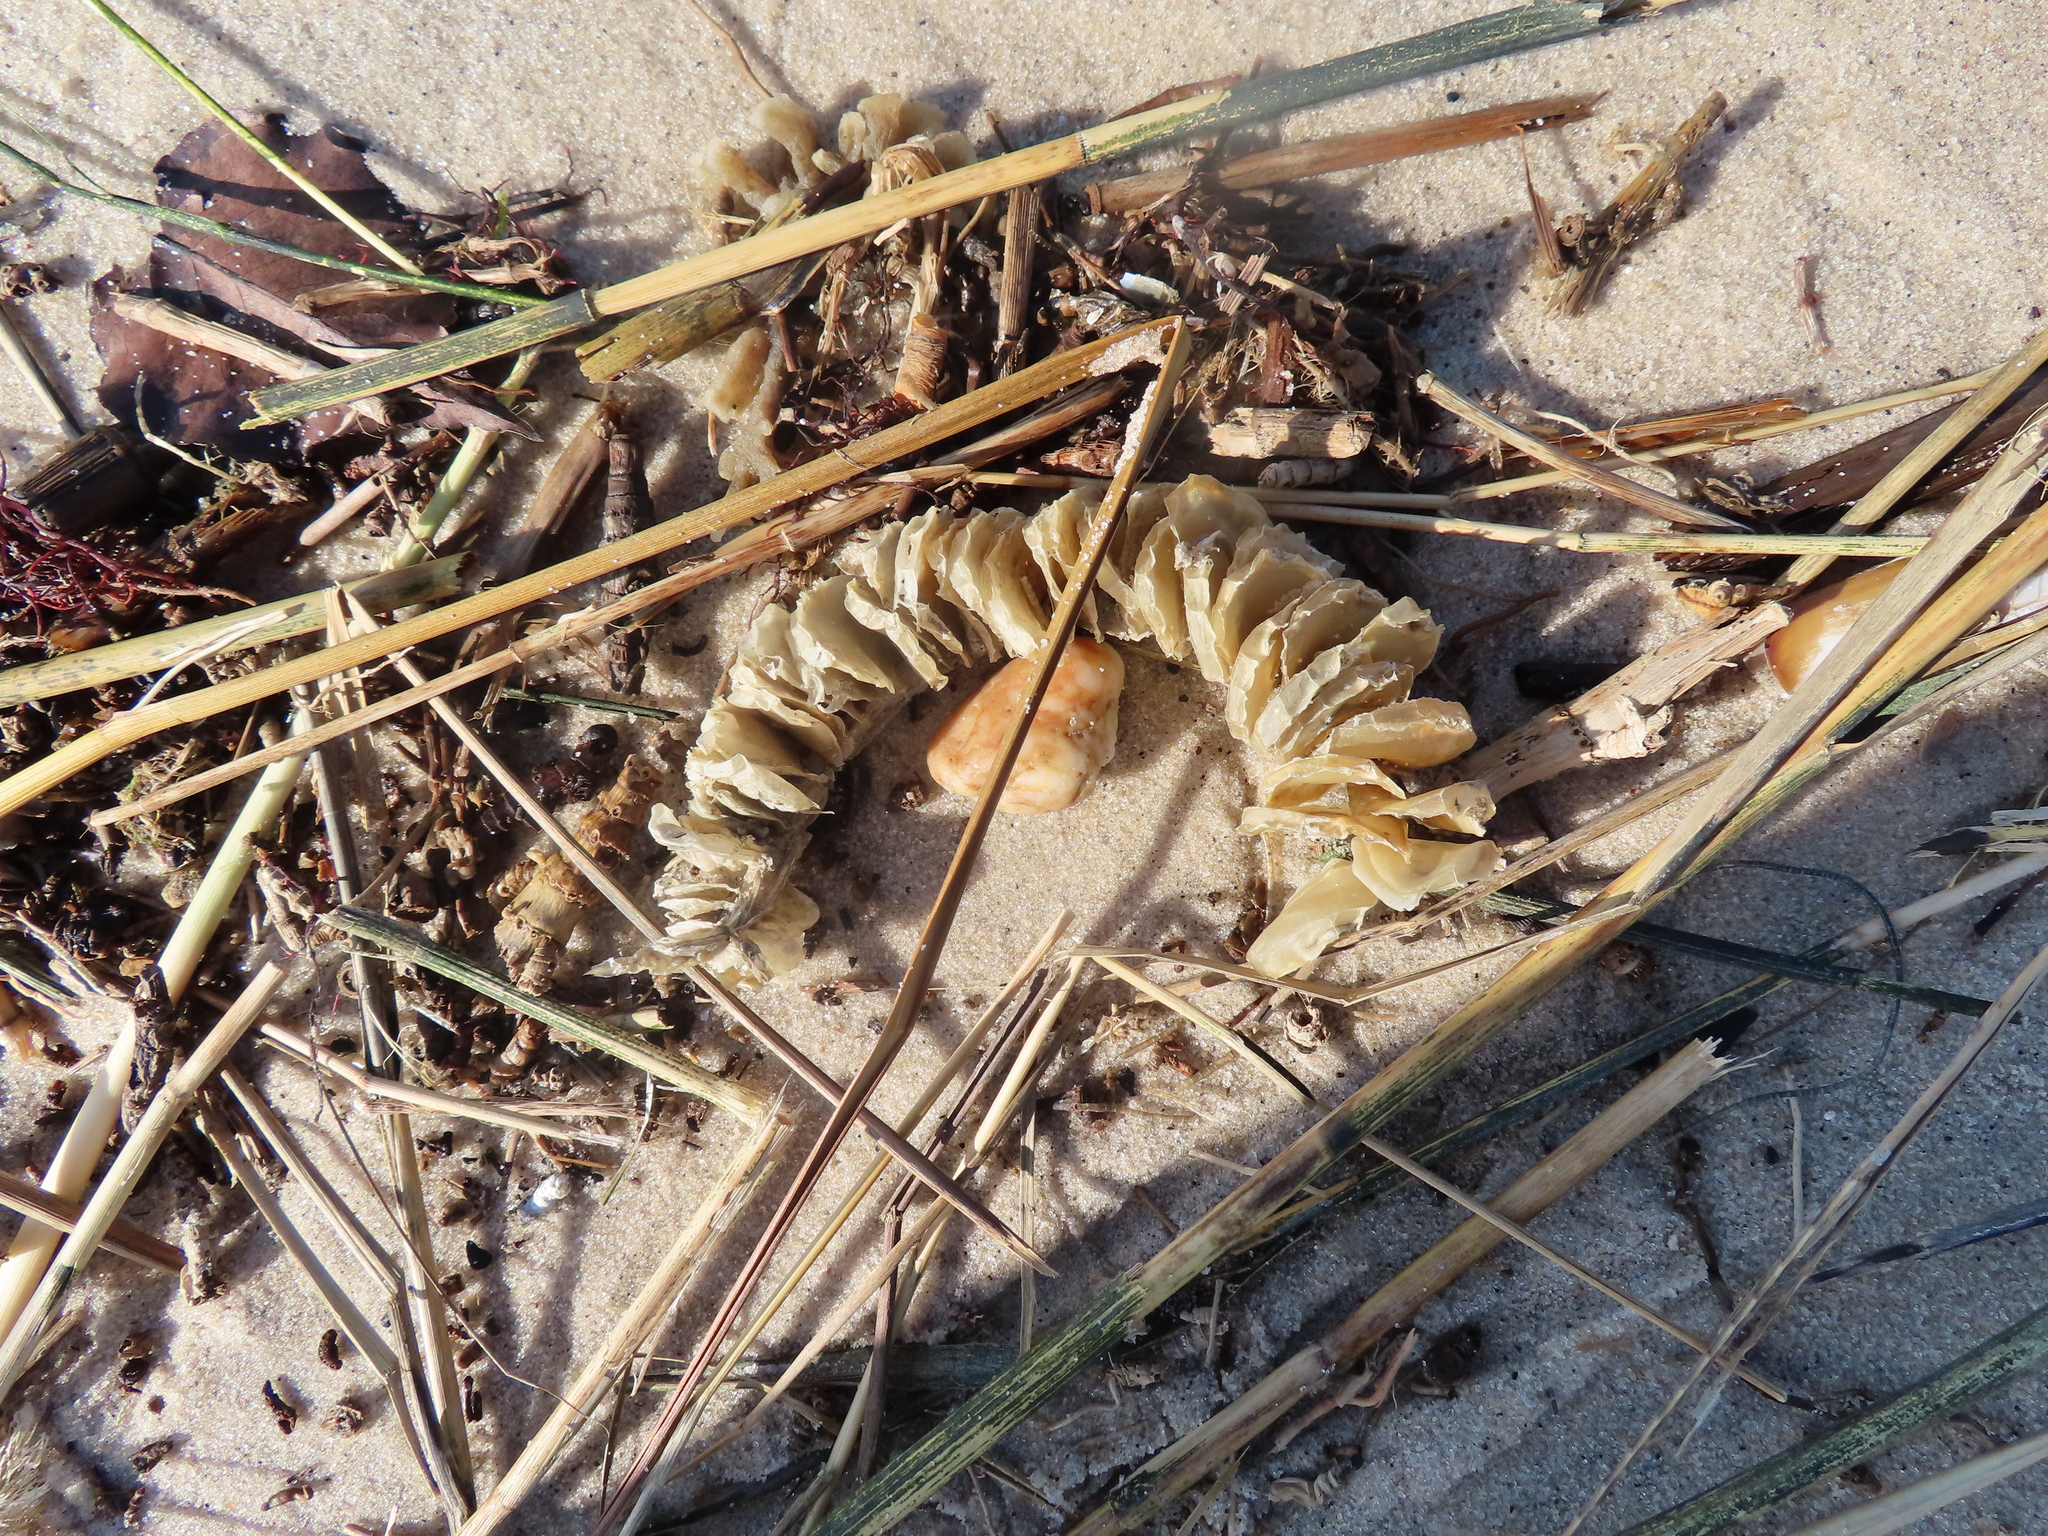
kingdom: Animalia
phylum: Mollusca
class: Gastropoda
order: Neogastropoda
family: Busyconidae
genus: Busycon
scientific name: Busycon carica
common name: Knobbed whelk
